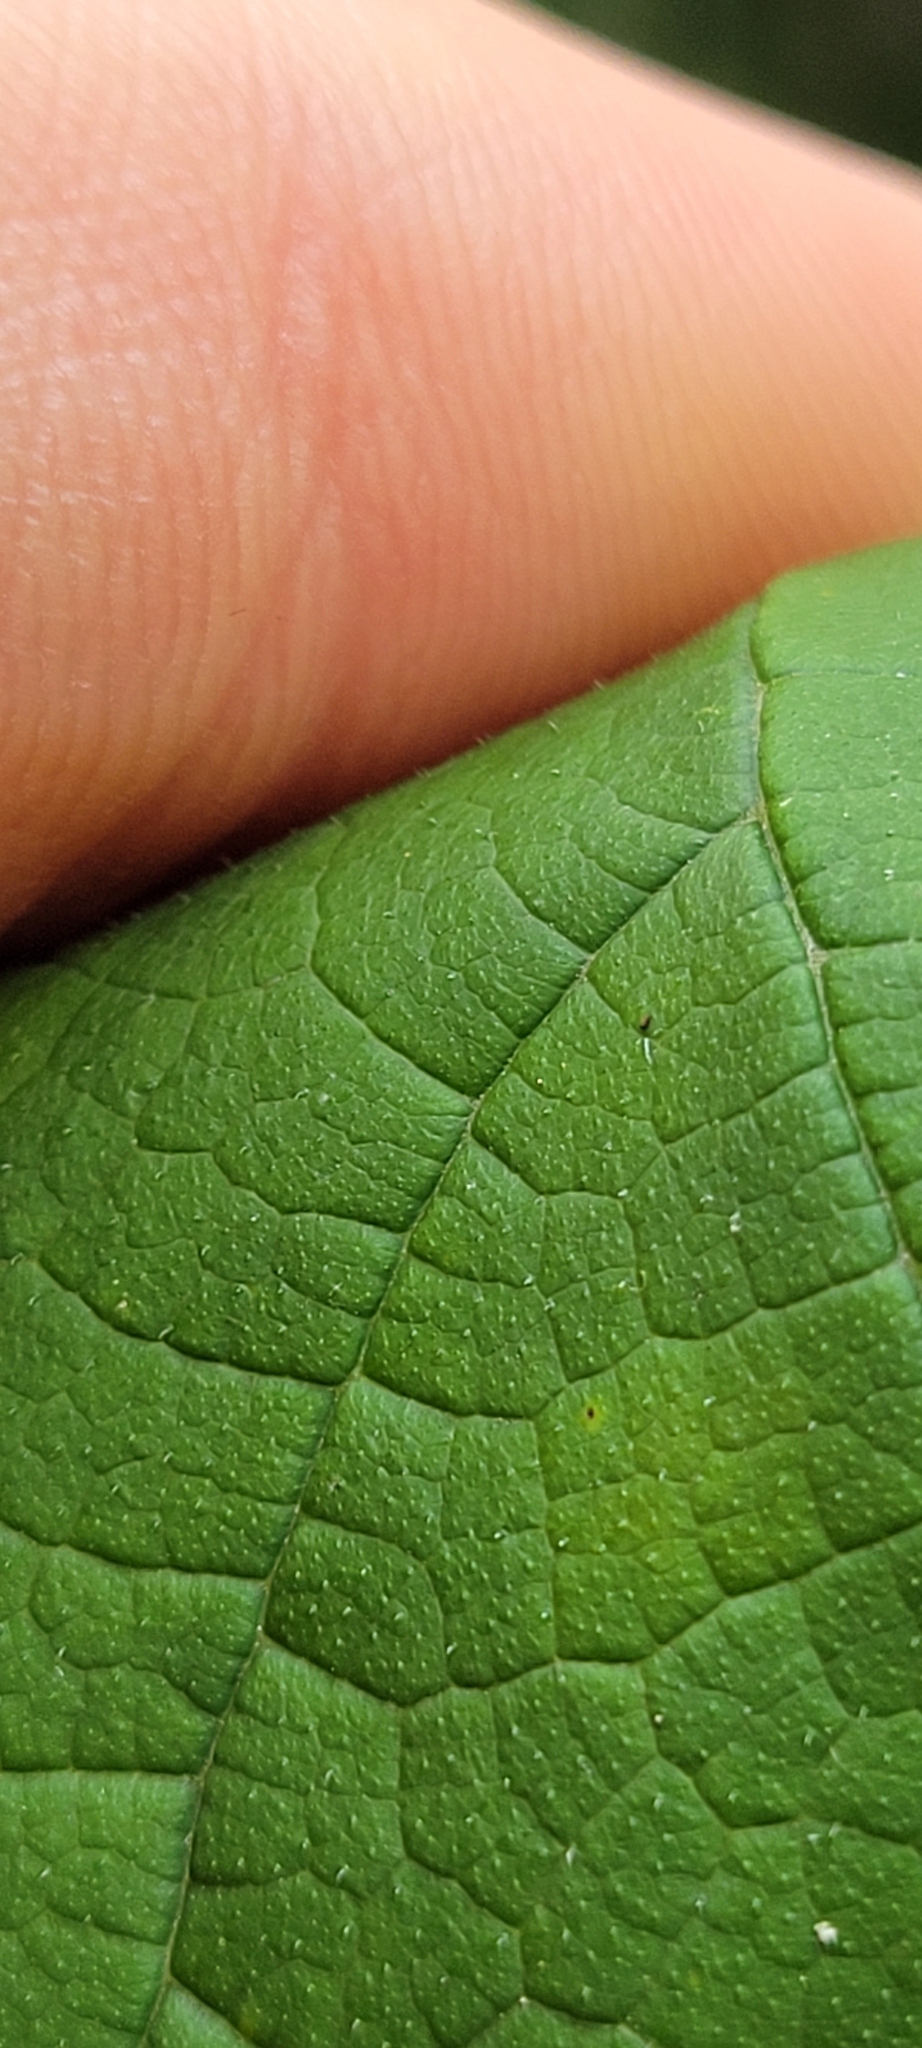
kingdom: Plantae
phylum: Tracheophyta
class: Magnoliopsida
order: Rosales
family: Moraceae
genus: Morus
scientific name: Morus rubra
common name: Red mulberry
